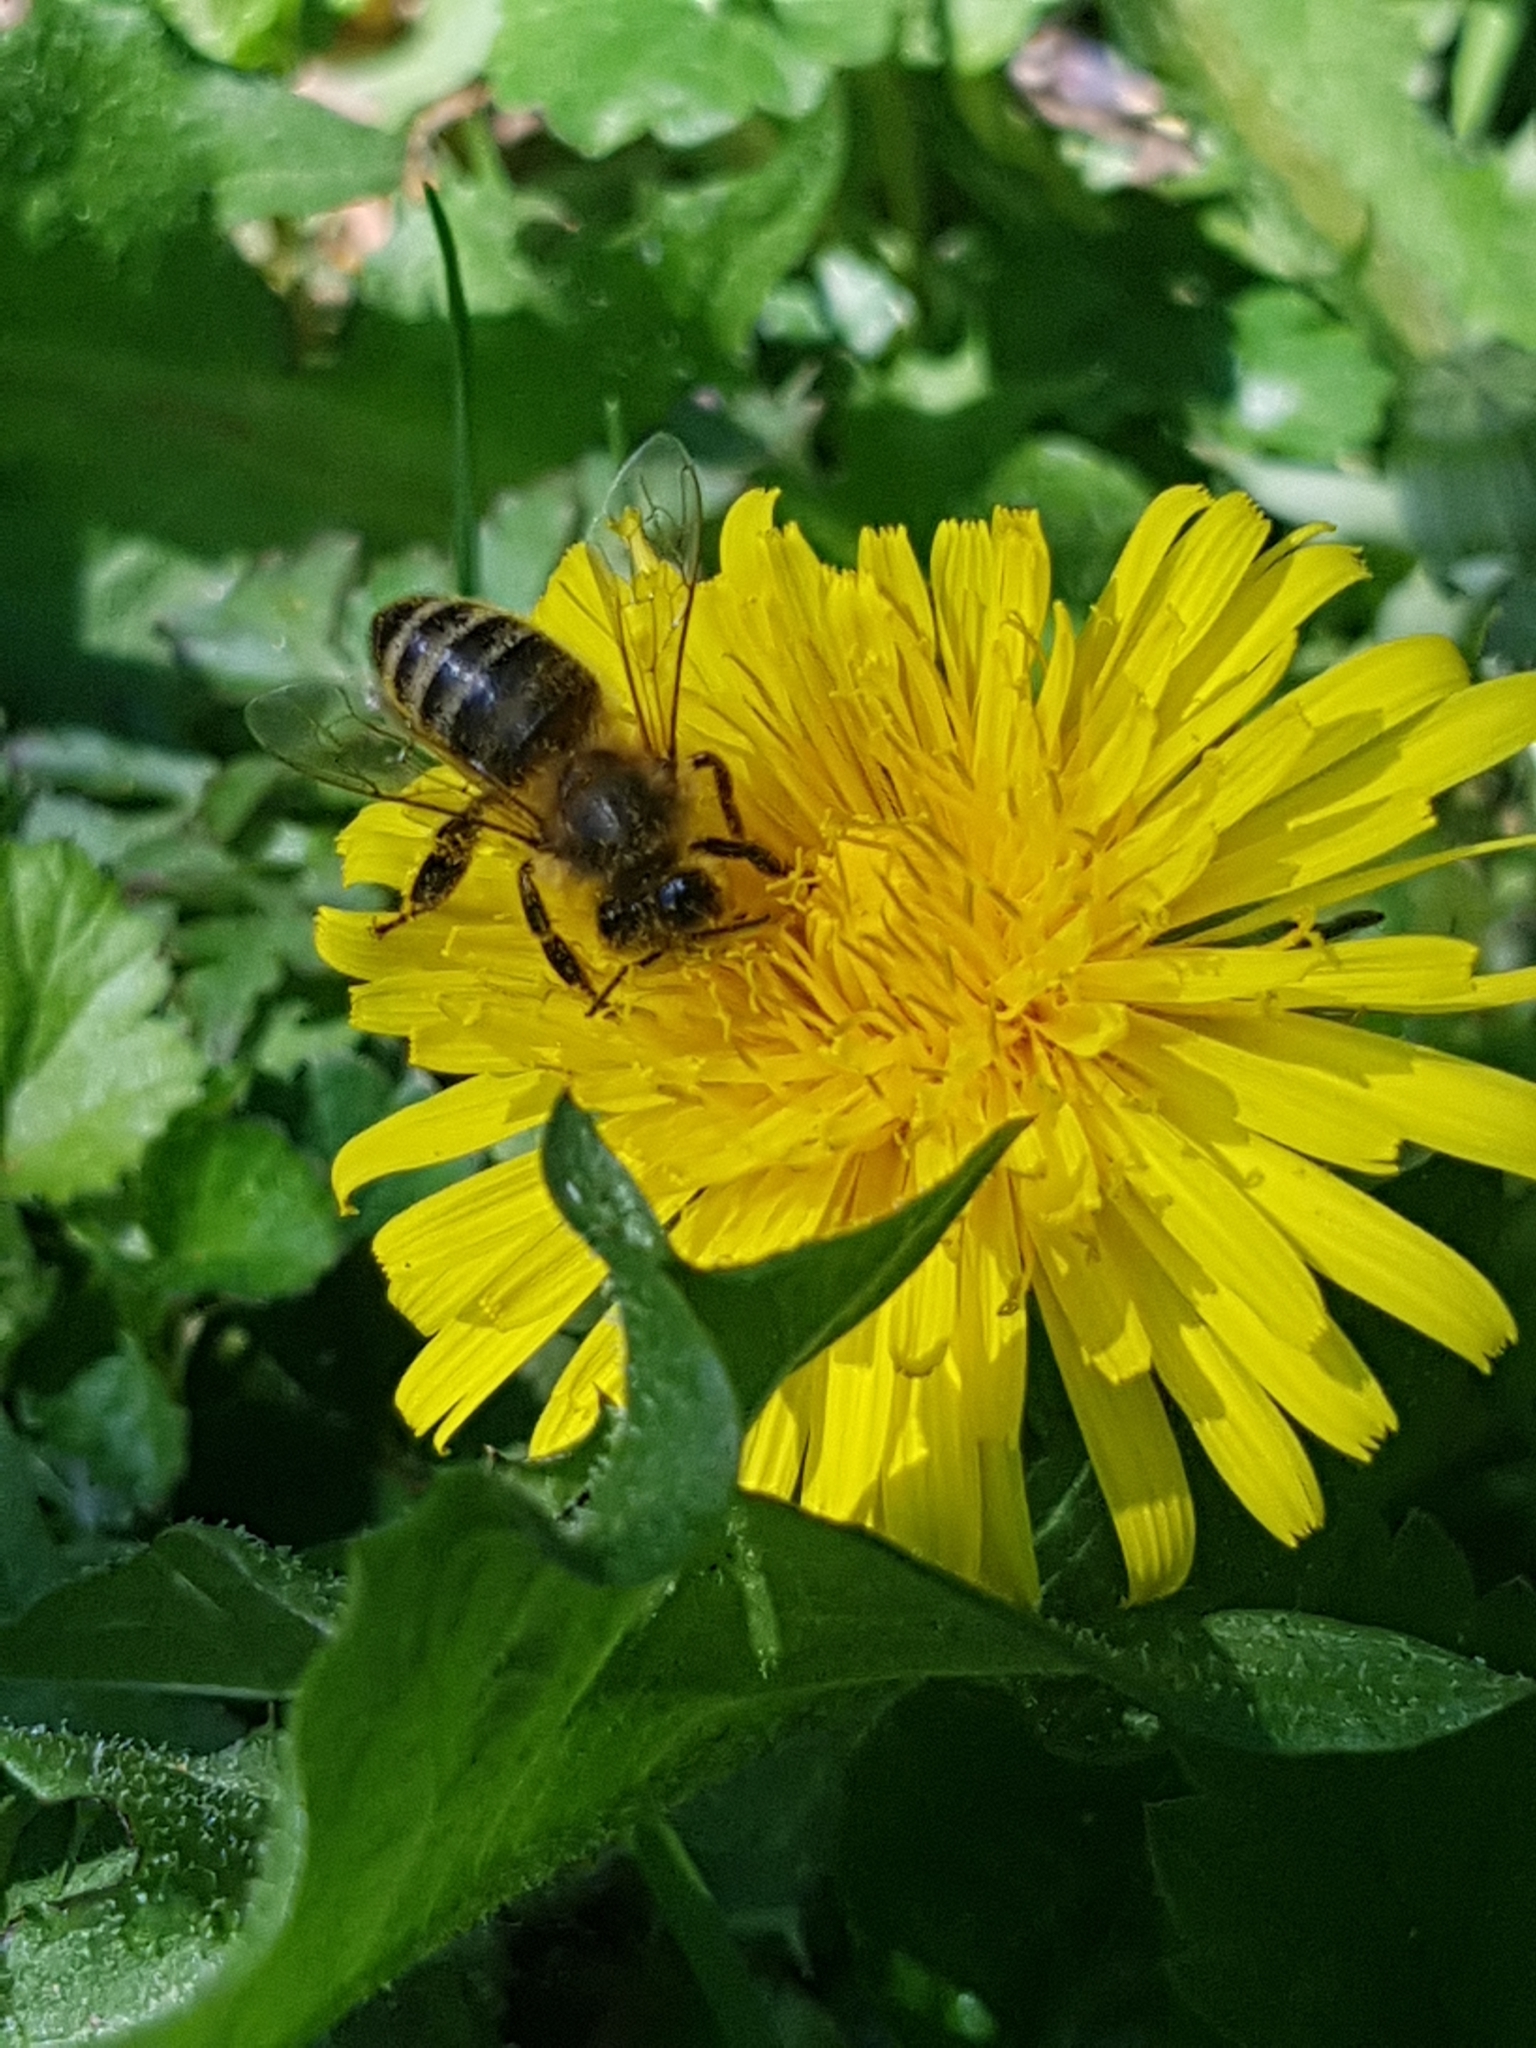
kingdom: Animalia
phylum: Arthropoda
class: Insecta
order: Hymenoptera
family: Apidae
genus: Apis
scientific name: Apis mellifera
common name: Honey bee
